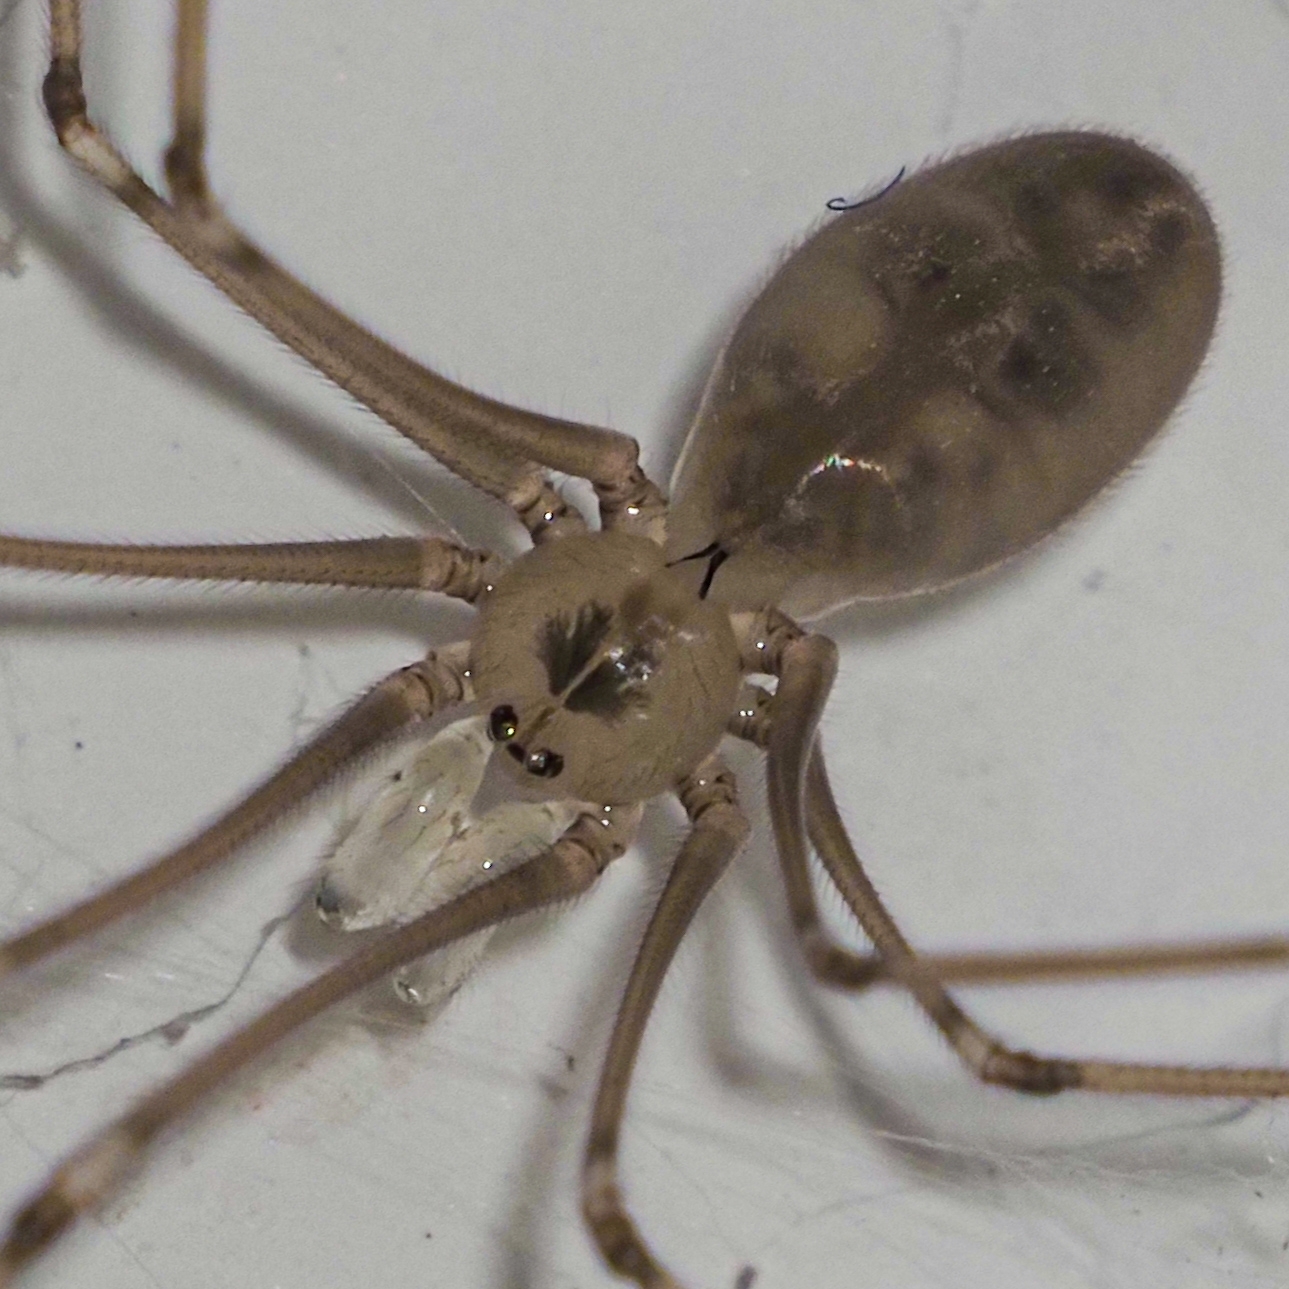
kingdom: Animalia
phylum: Arthropoda
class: Arachnida
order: Araneae
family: Pholcidae
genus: Pholcus
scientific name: Pholcus phalangioides
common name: Longbodied cellar spider
